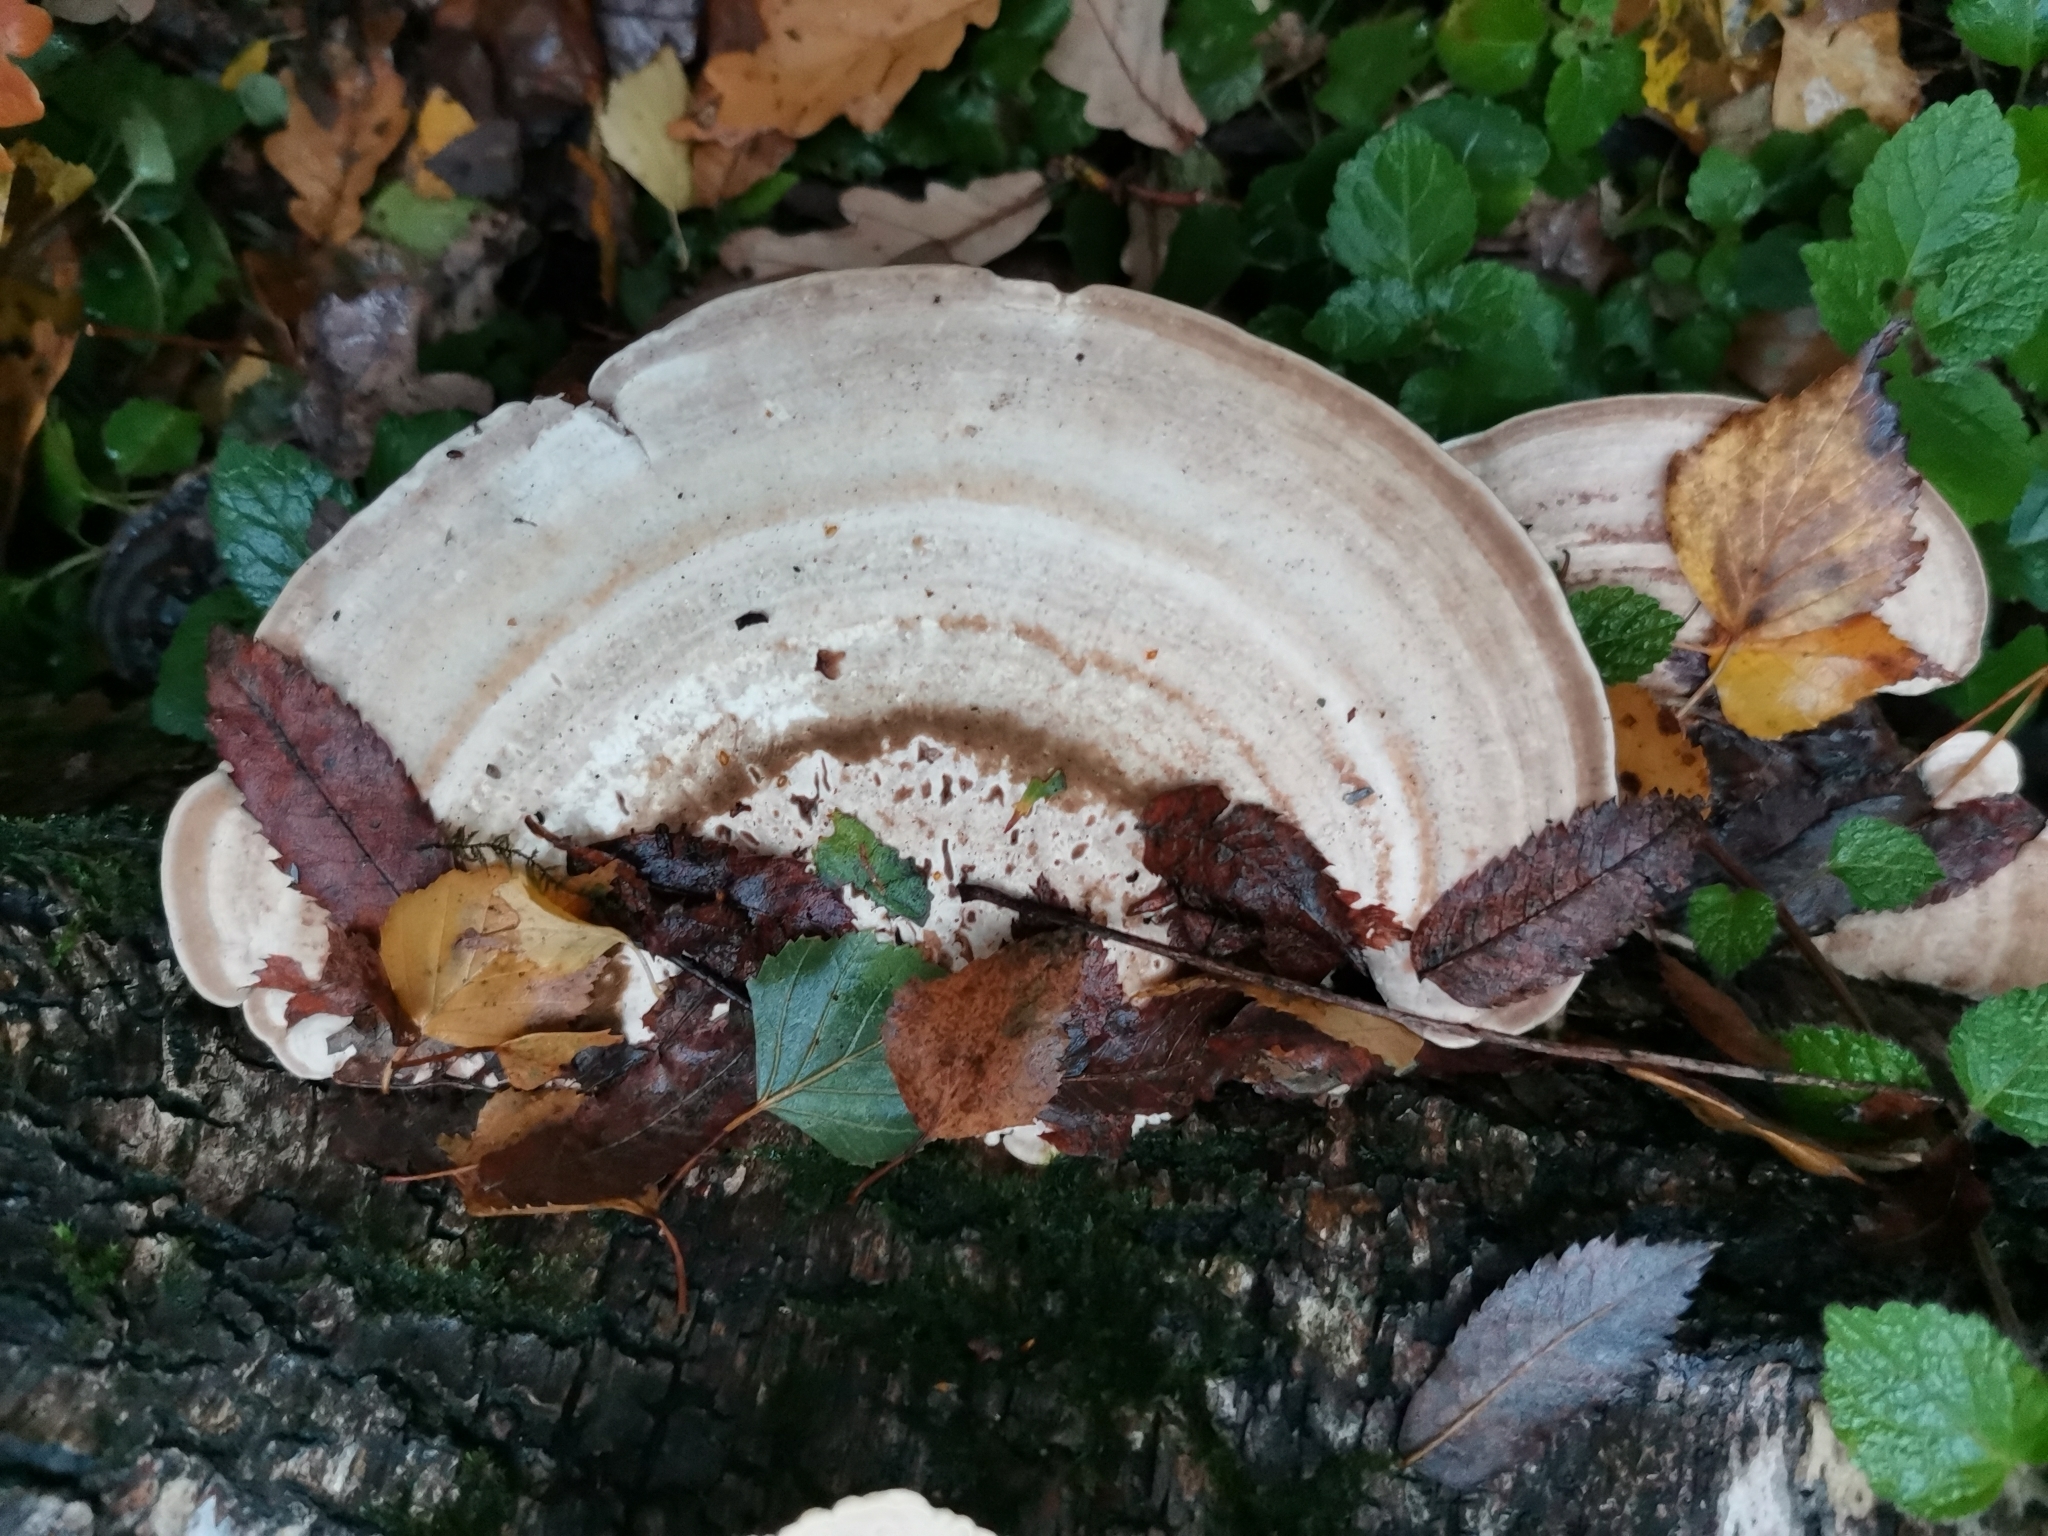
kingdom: Fungi
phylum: Basidiomycota
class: Agaricomycetes
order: Polyporales
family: Polyporaceae
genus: Trametes
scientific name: Trametes gibbosa
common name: Lumpy bracket
